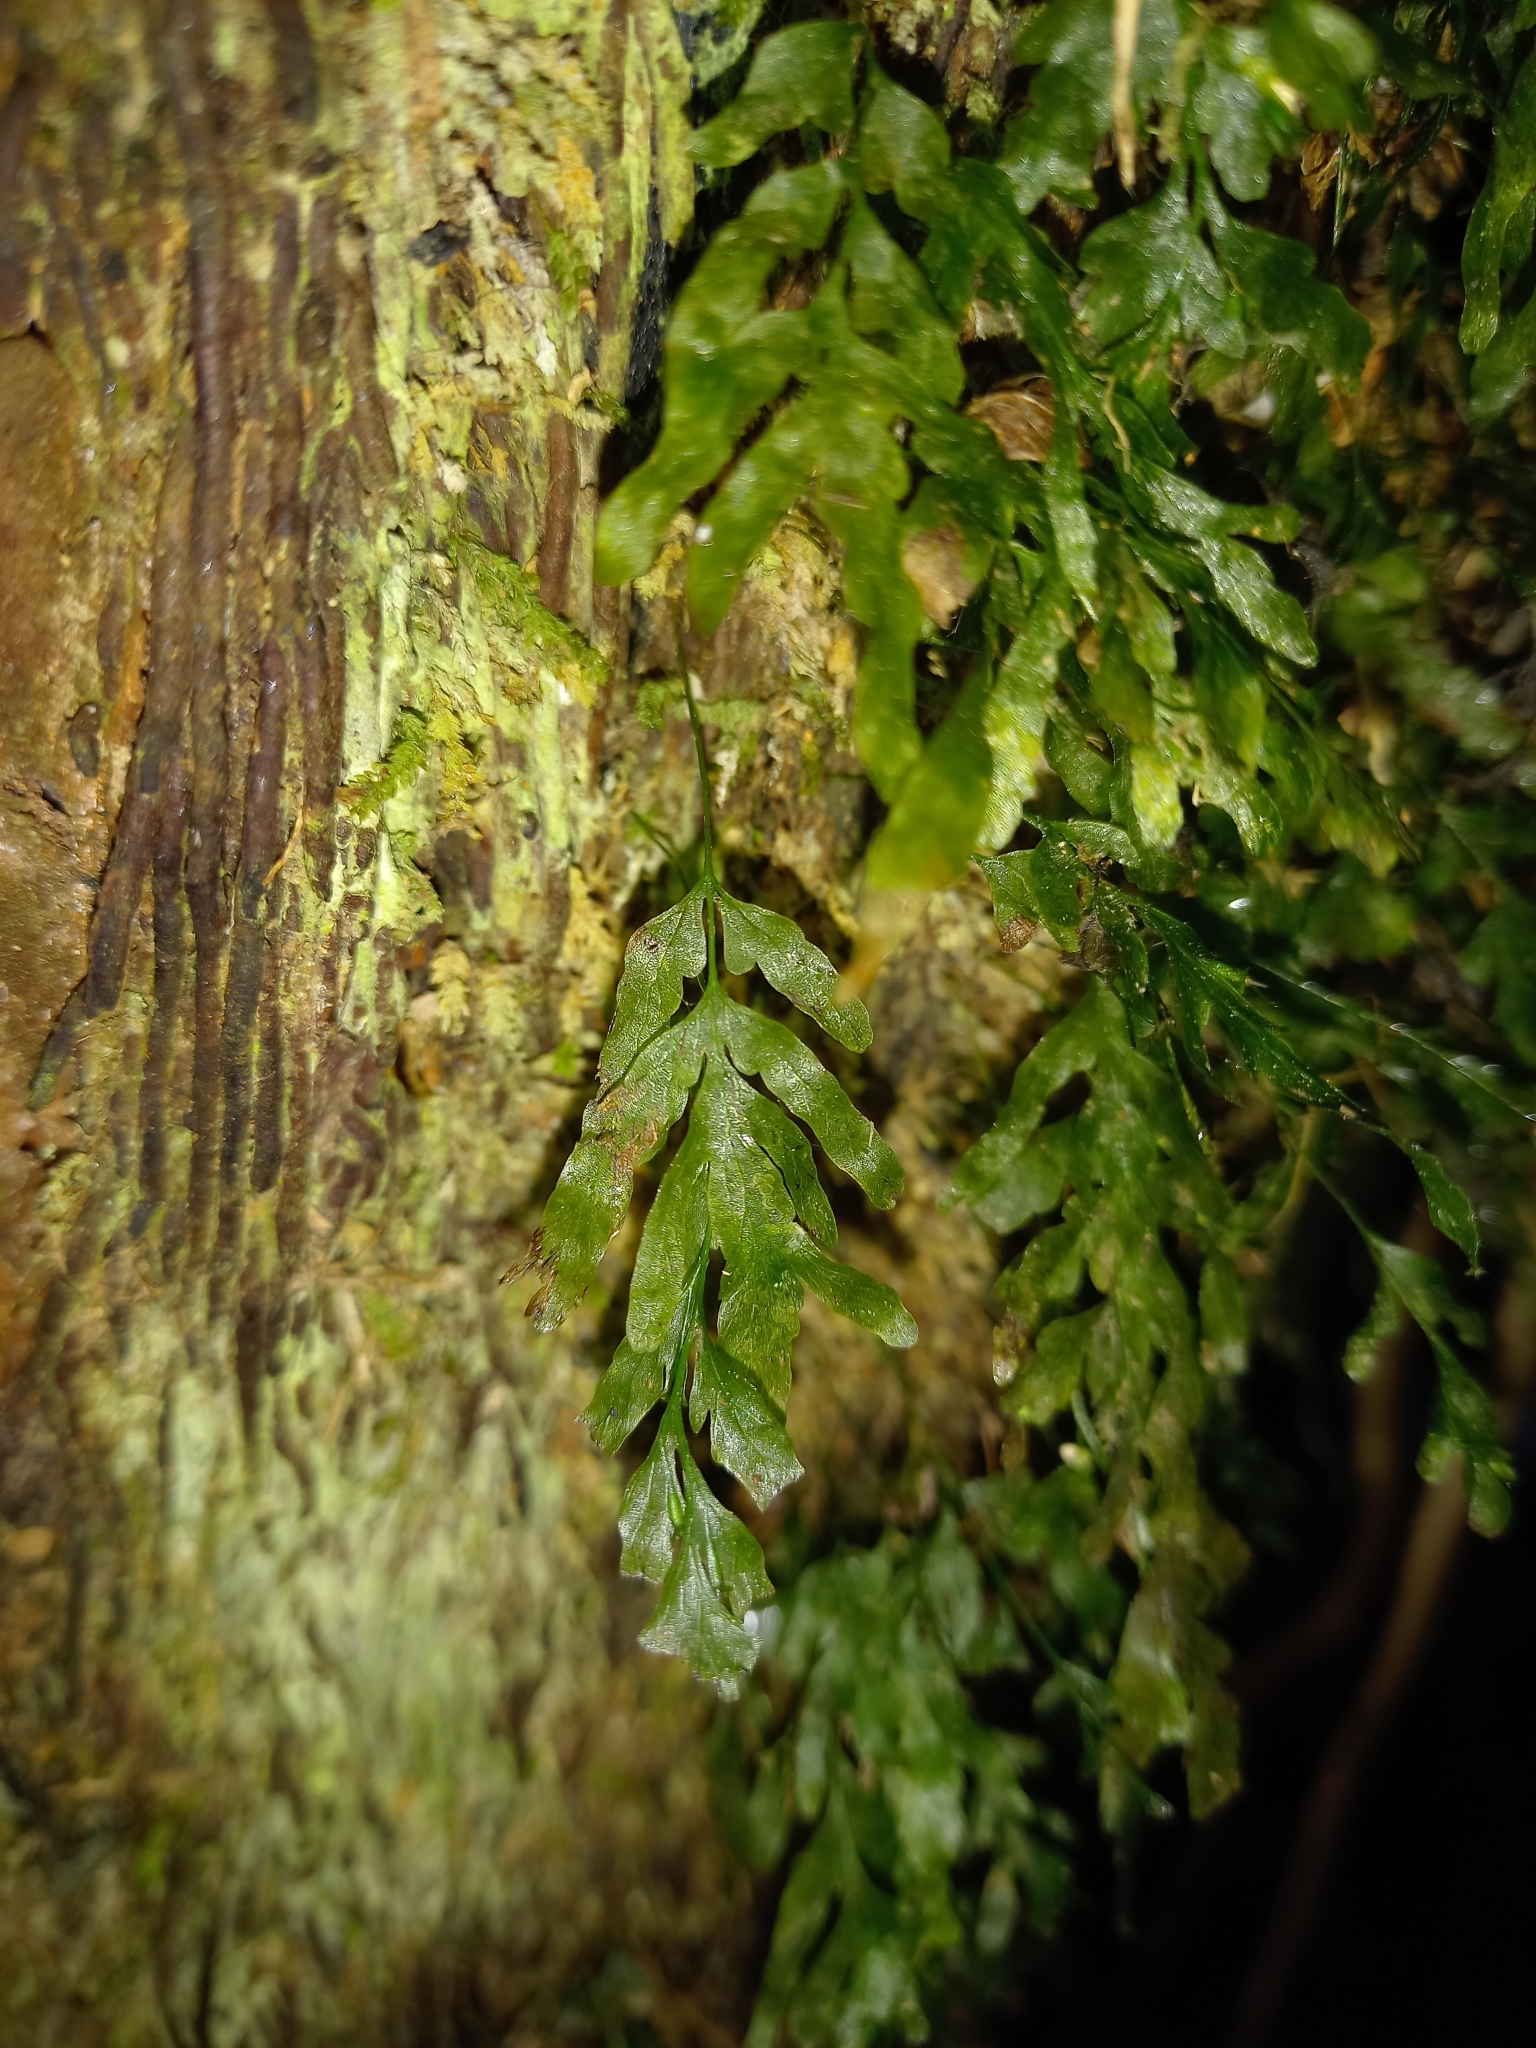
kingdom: Plantae
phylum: Tracheophyta
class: Polypodiopsida
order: Hymenophyllales
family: Hymenophyllaceae
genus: Polyphlebium
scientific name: Polyphlebium venosum
